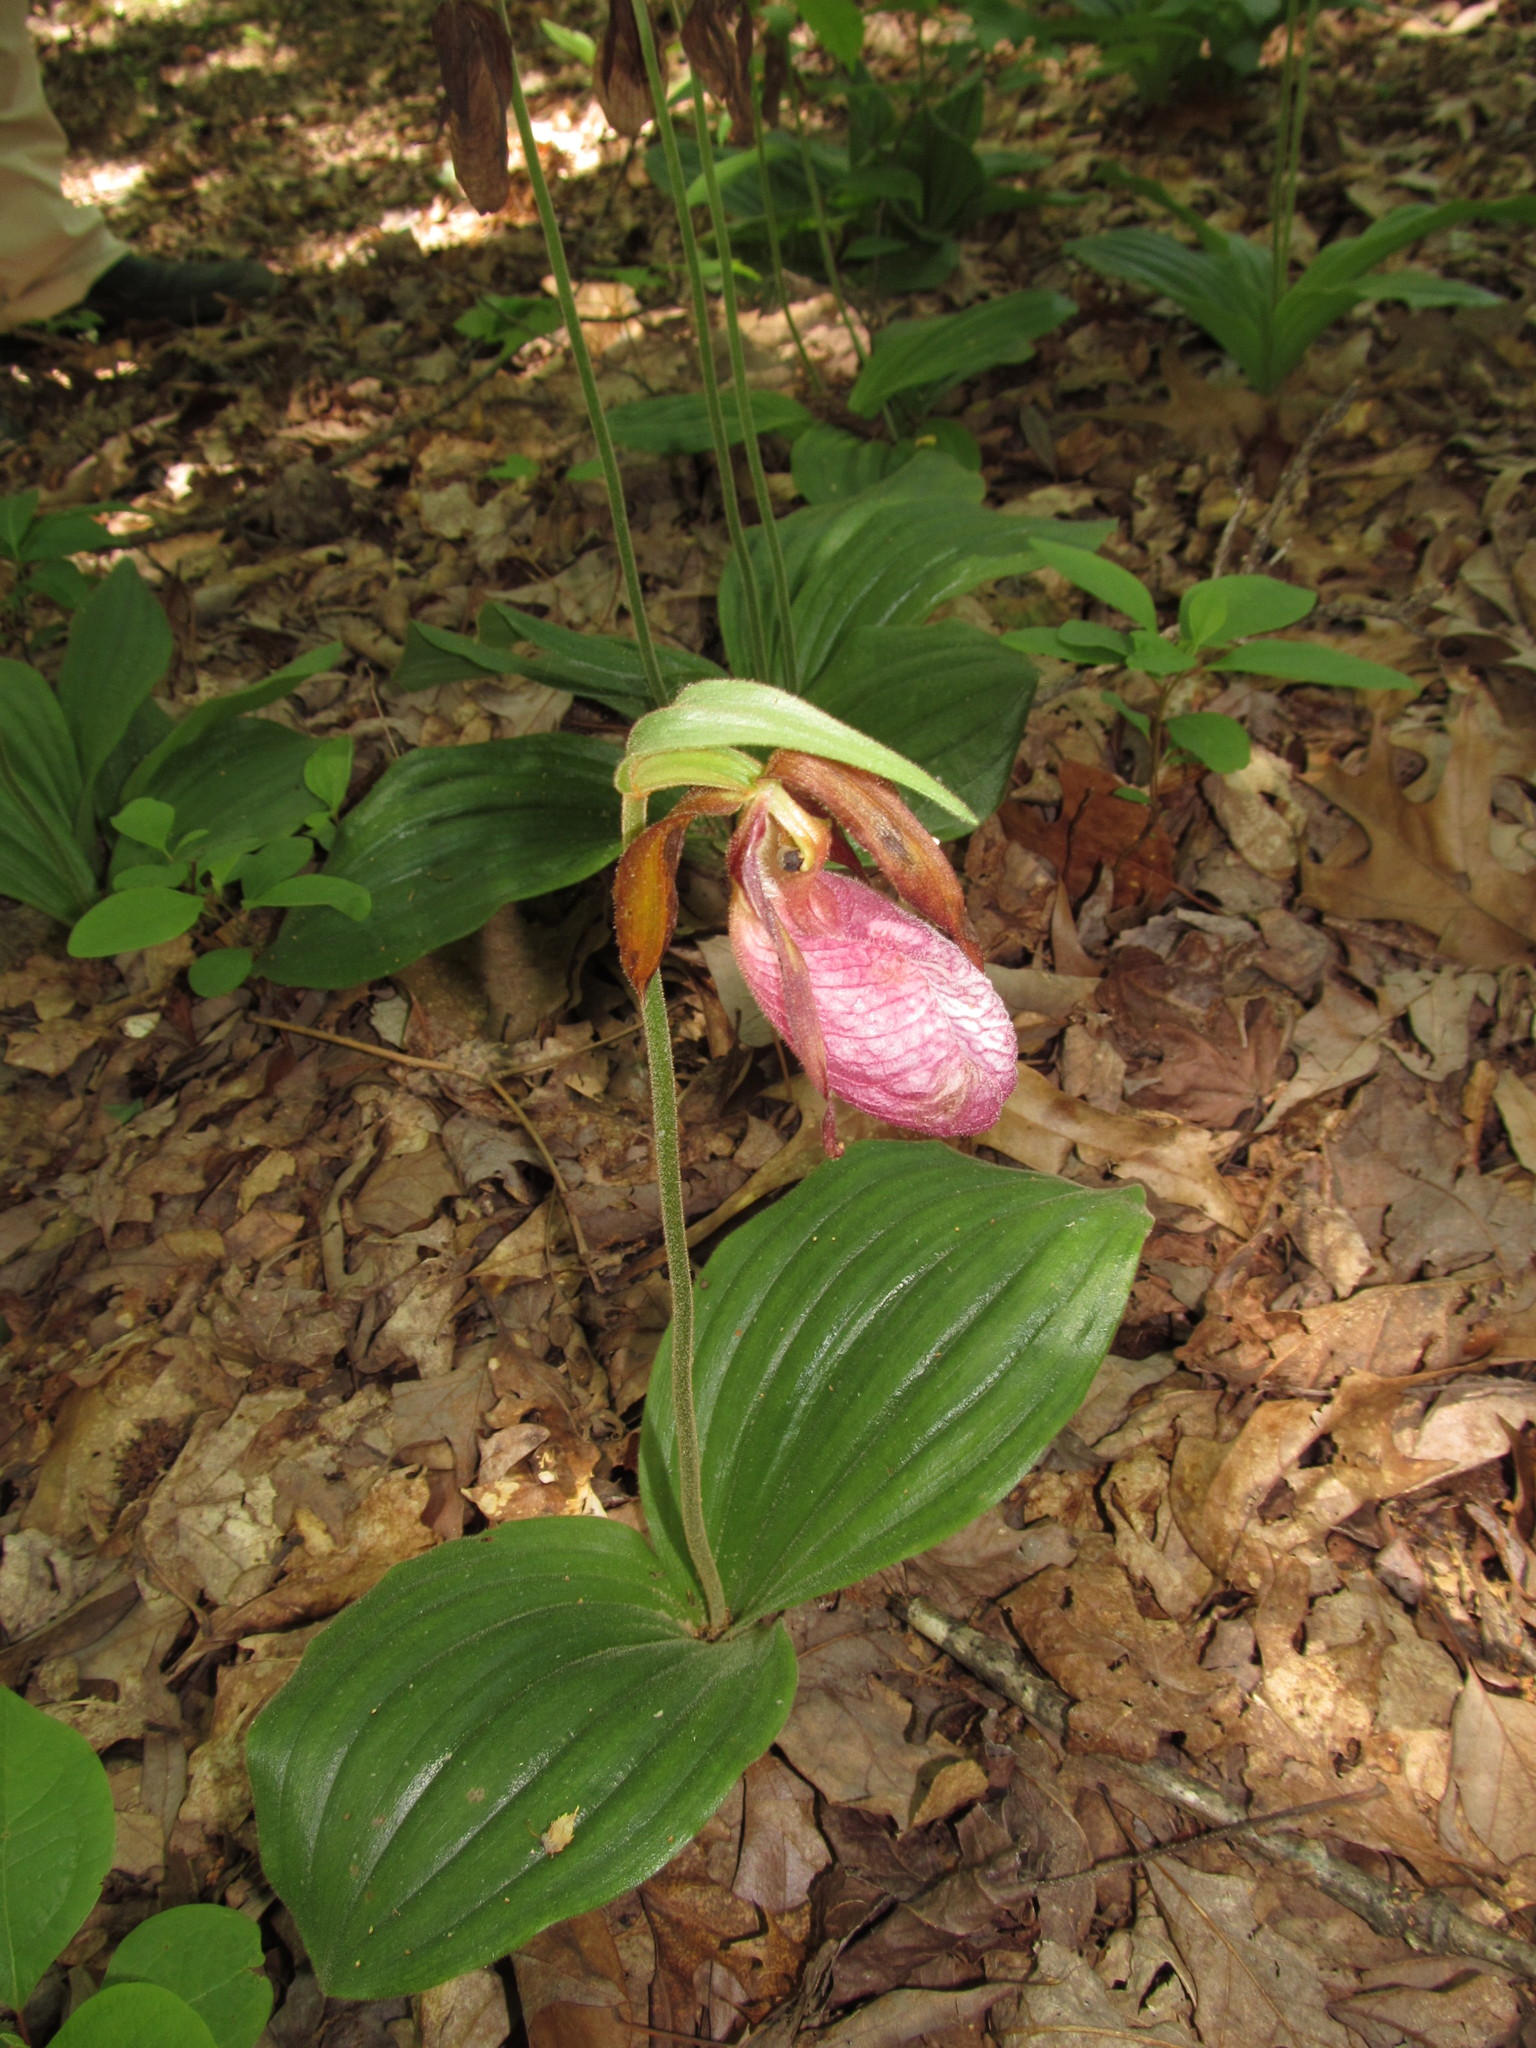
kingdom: Plantae
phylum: Tracheophyta
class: Liliopsida
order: Asparagales
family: Orchidaceae
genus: Cypripedium
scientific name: Cypripedium acaule
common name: Pink lady's-slipper
